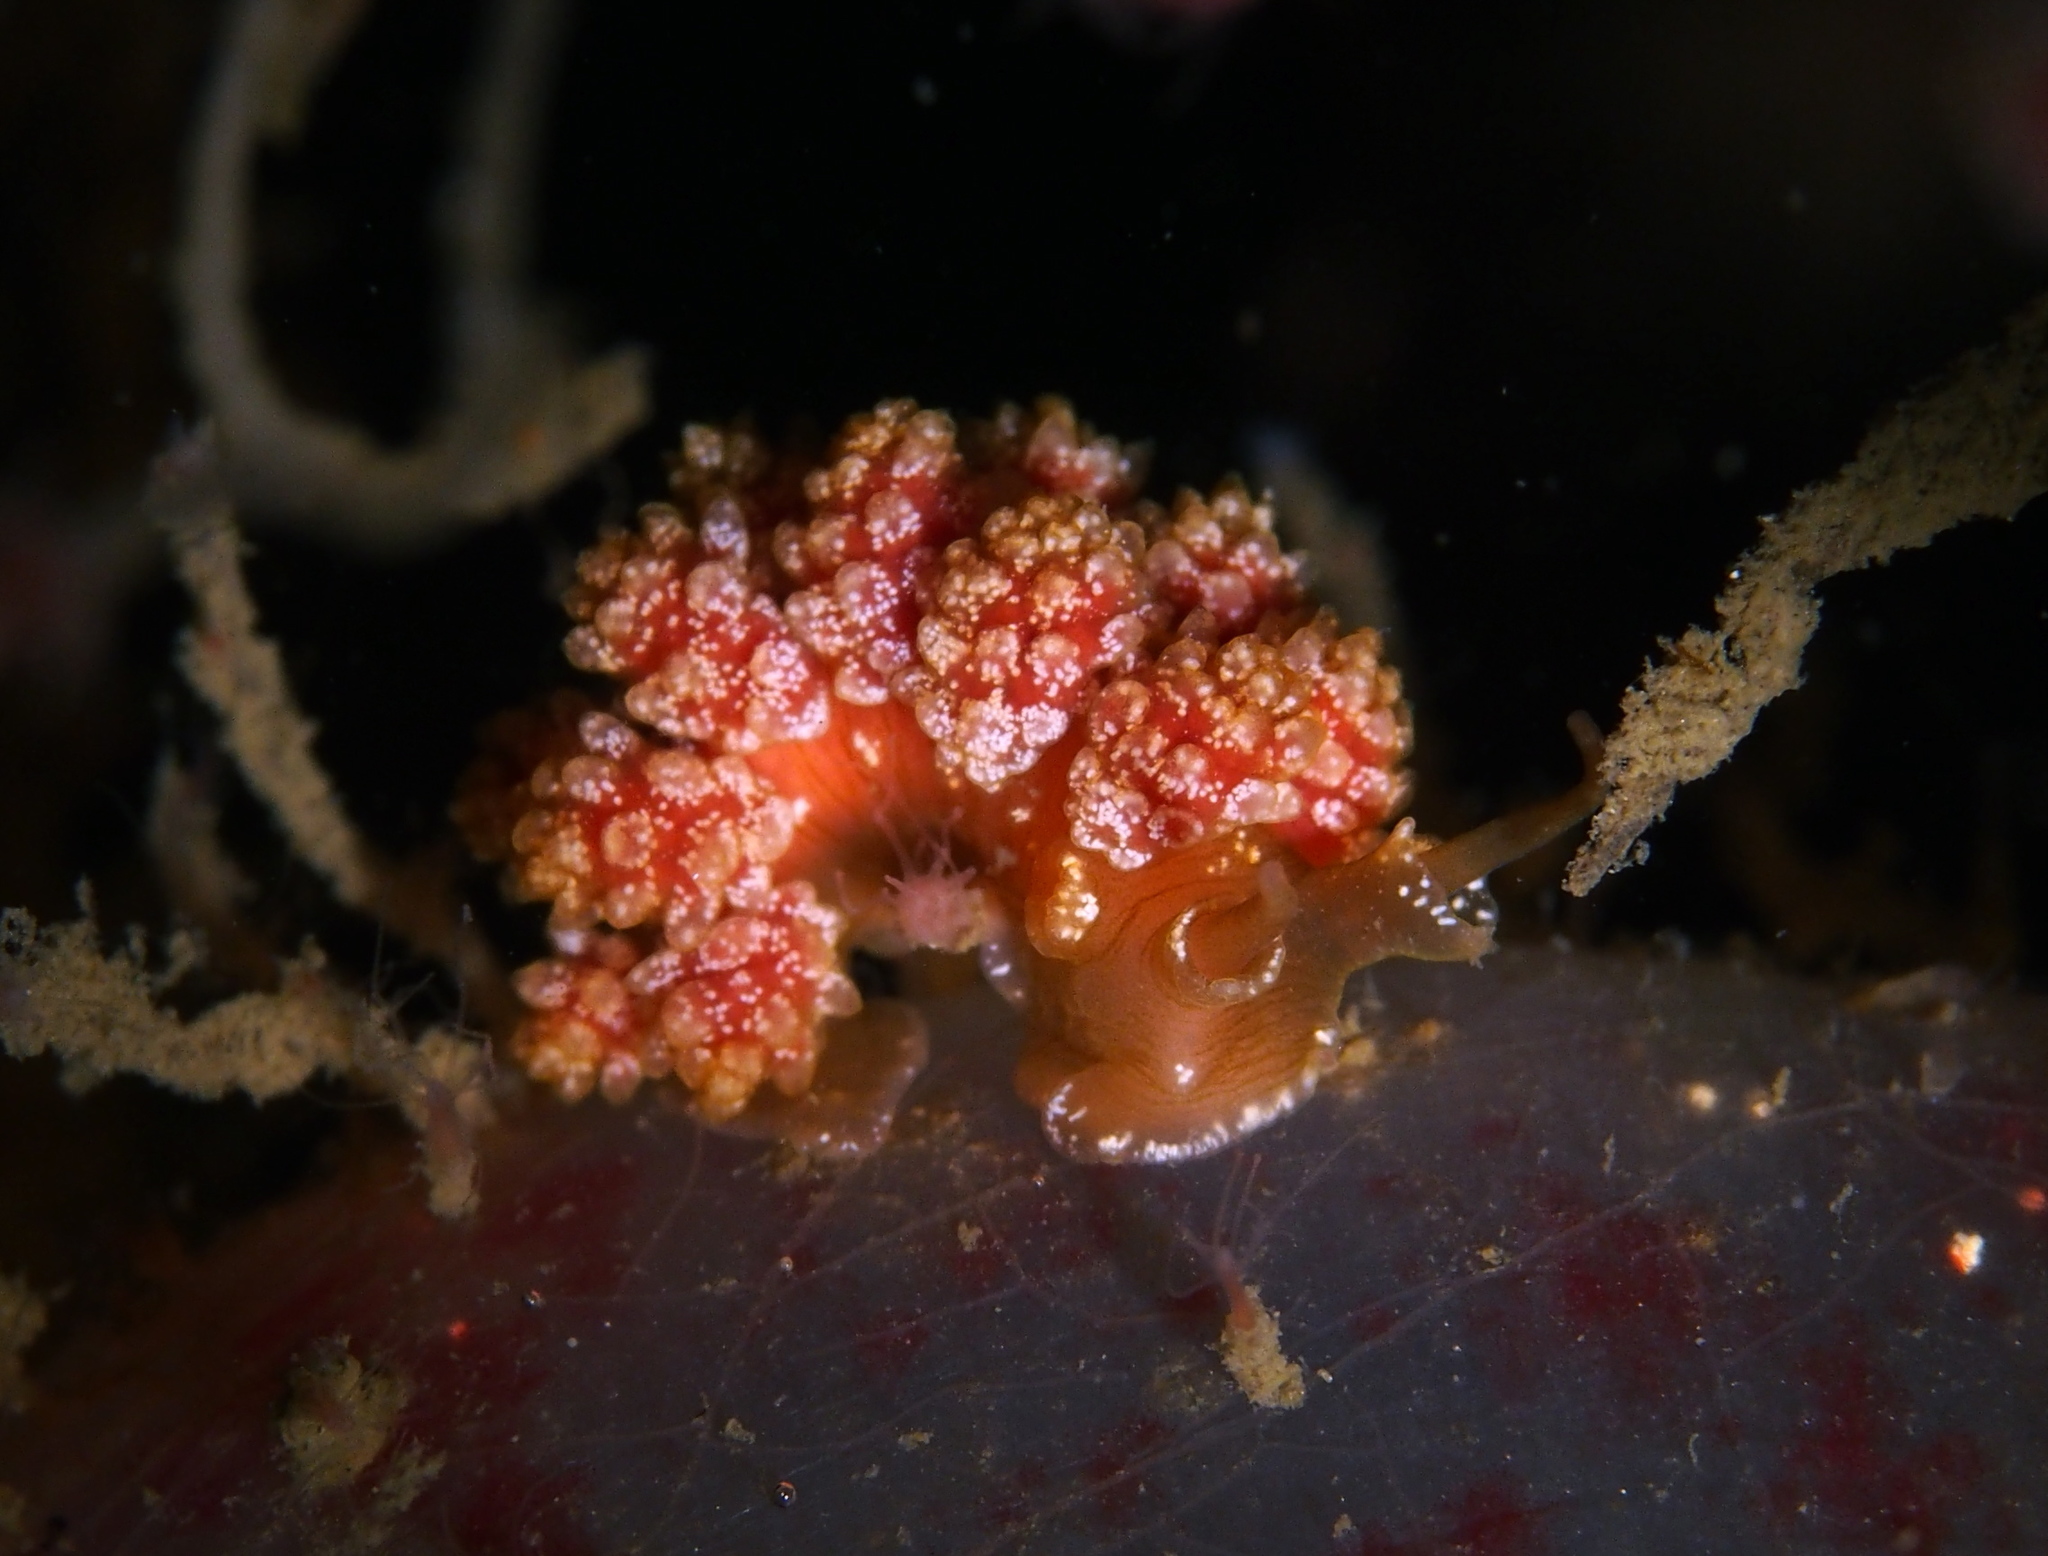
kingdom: Animalia
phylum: Mollusca
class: Gastropoda
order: Nudibranchia
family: Dotidae
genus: Doto
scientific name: Doto fragilis
